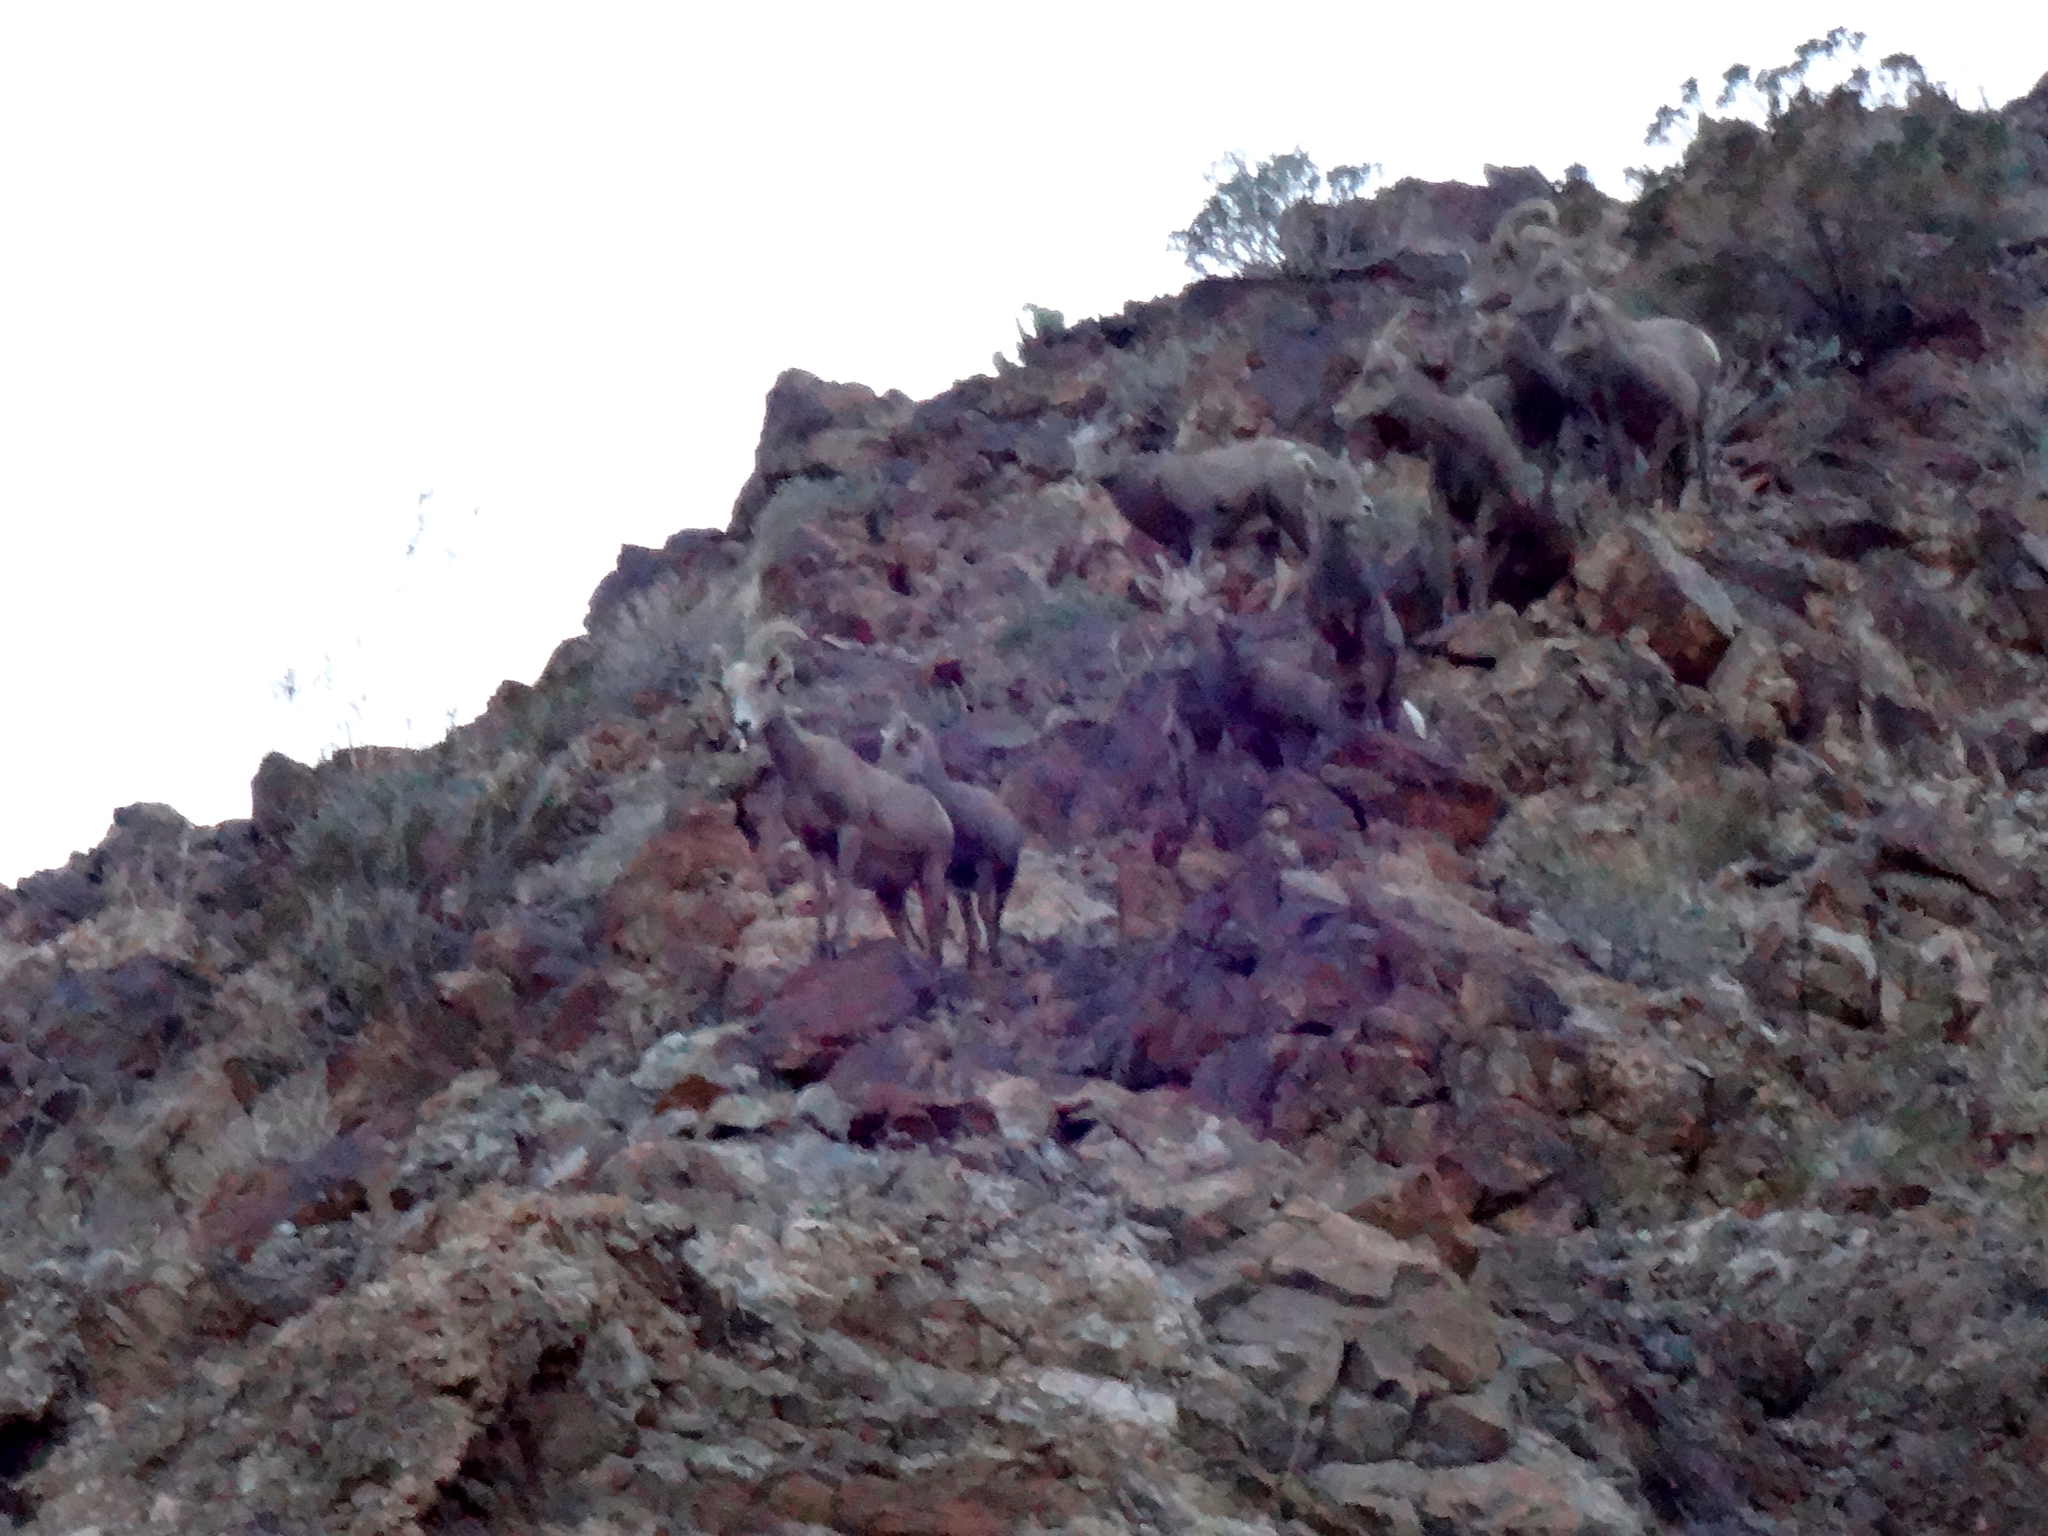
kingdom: Animalia
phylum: Chordata
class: Mammalia
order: Artiodactyla
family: Bovidae
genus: Ovis
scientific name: Ovis canadensis
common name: Bighorn sheep
